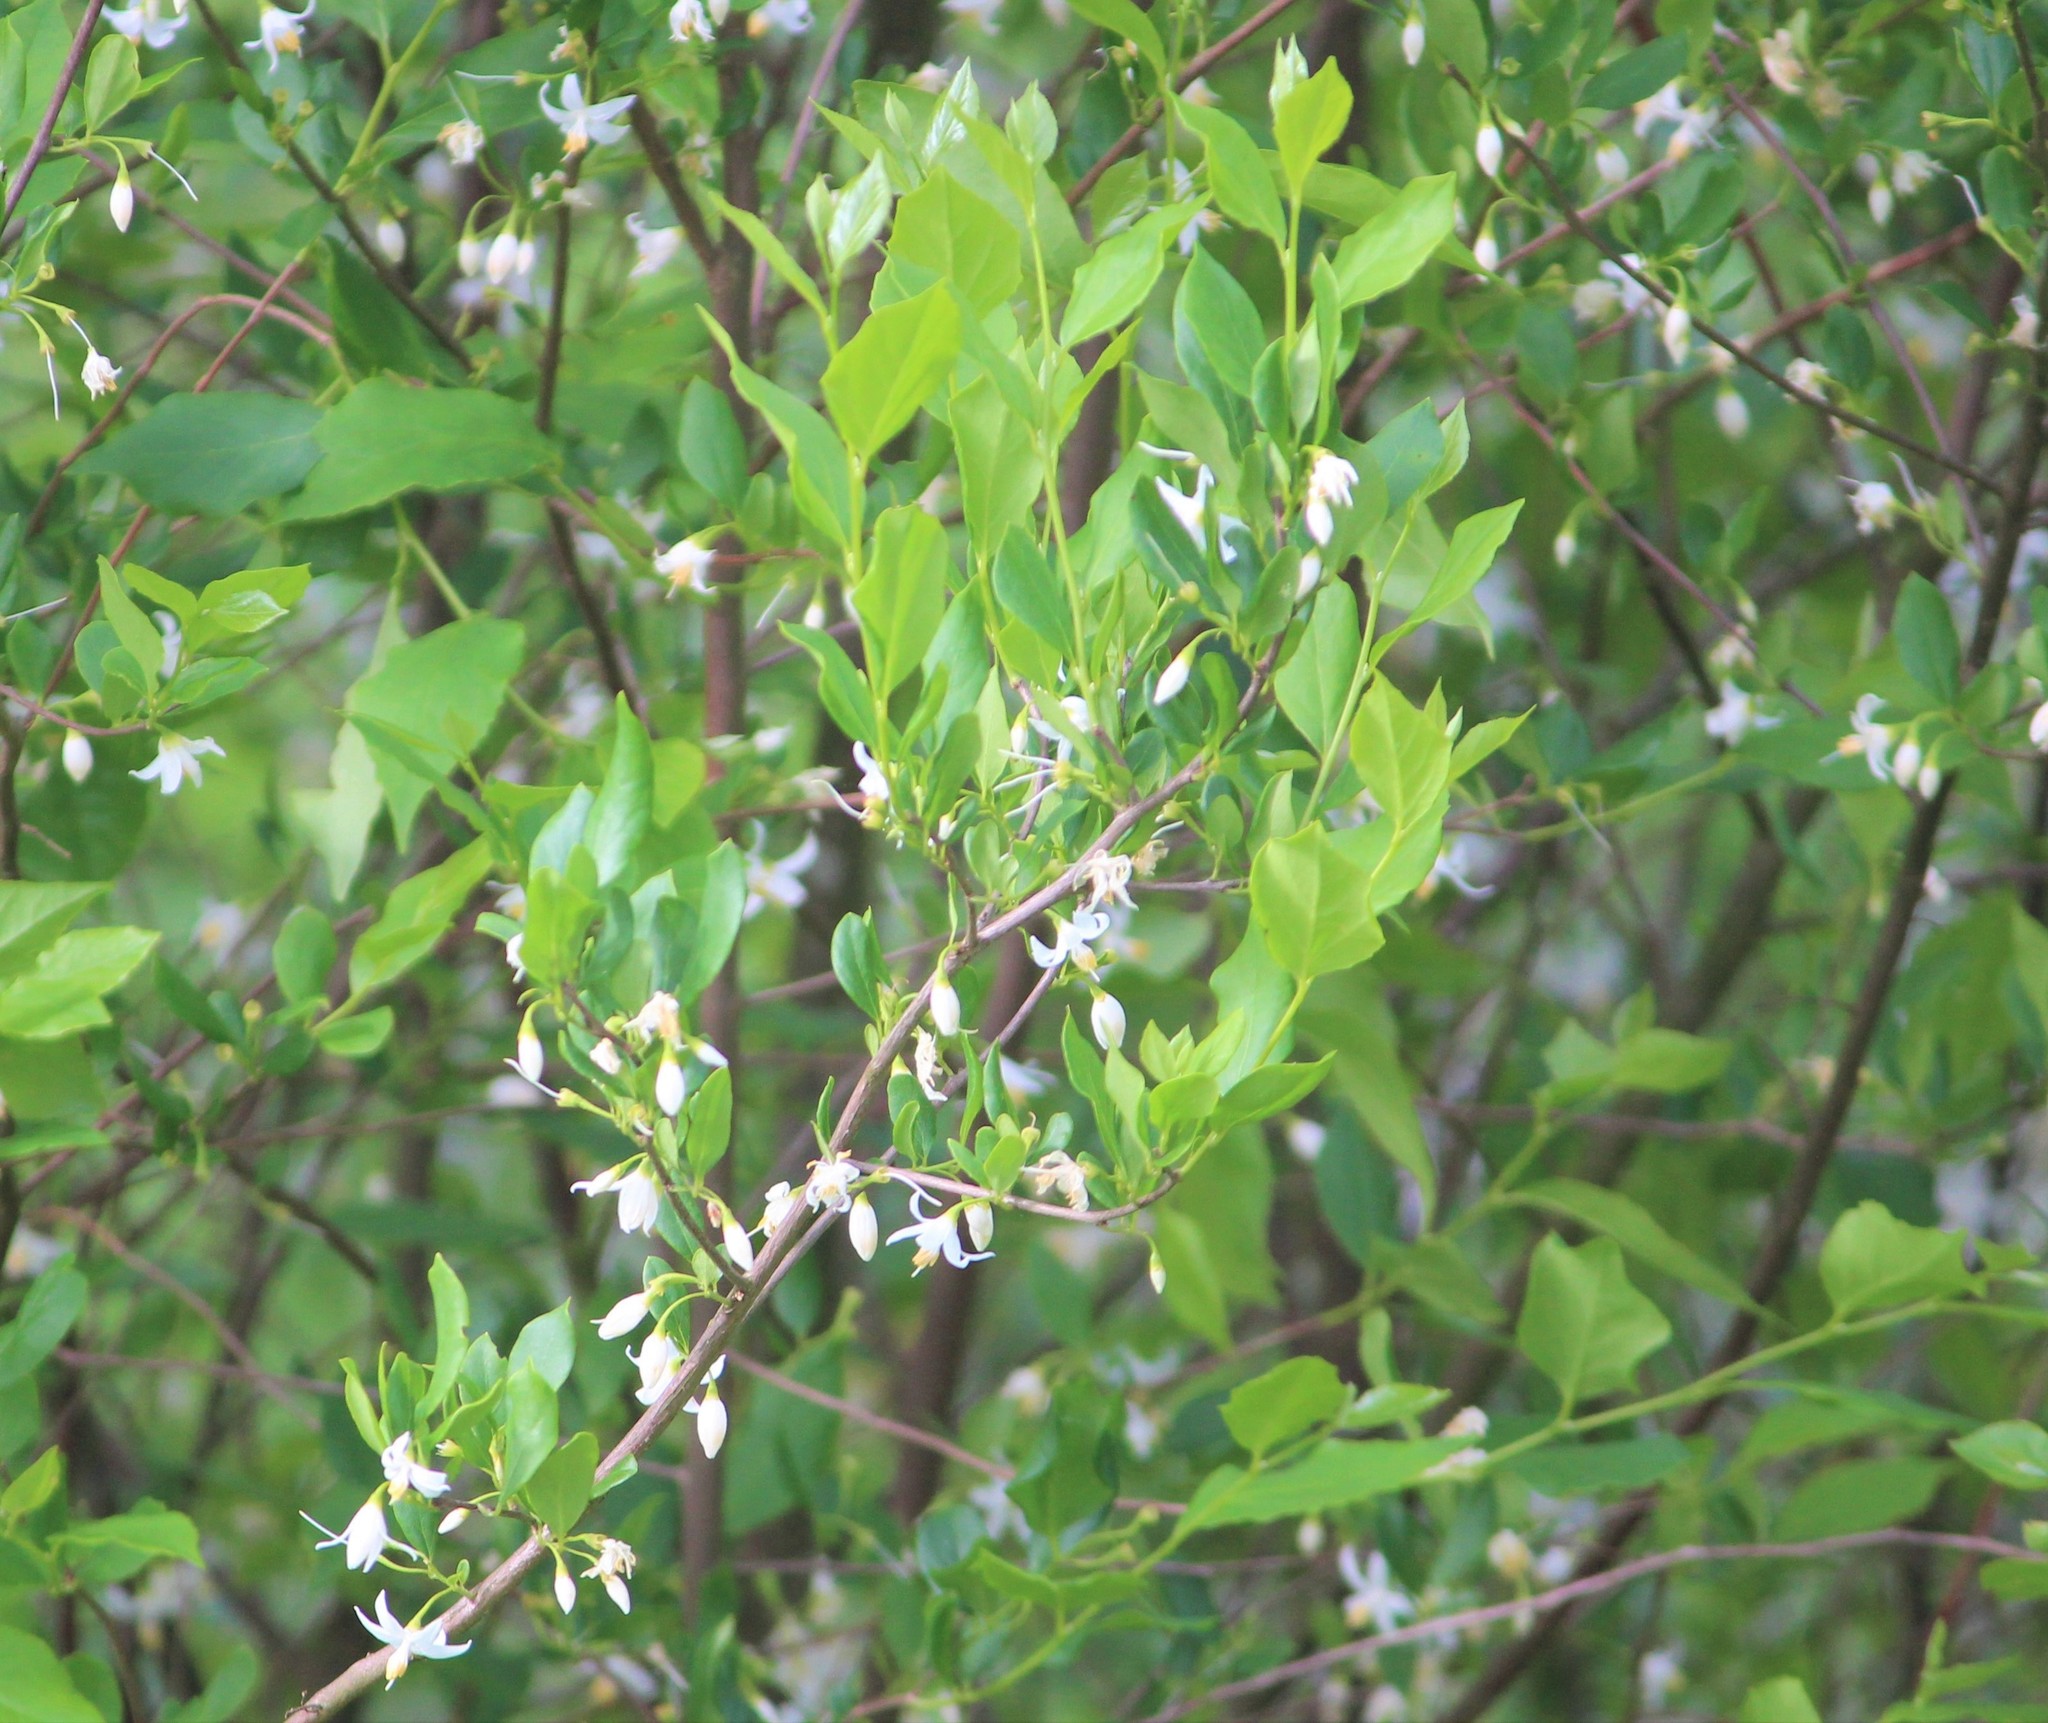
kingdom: Plantae
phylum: Tracheophyta
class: Magnoliopsida
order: Ericales
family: Styracaceae
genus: Styrax
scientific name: Styrax americanus
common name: American snowbell
